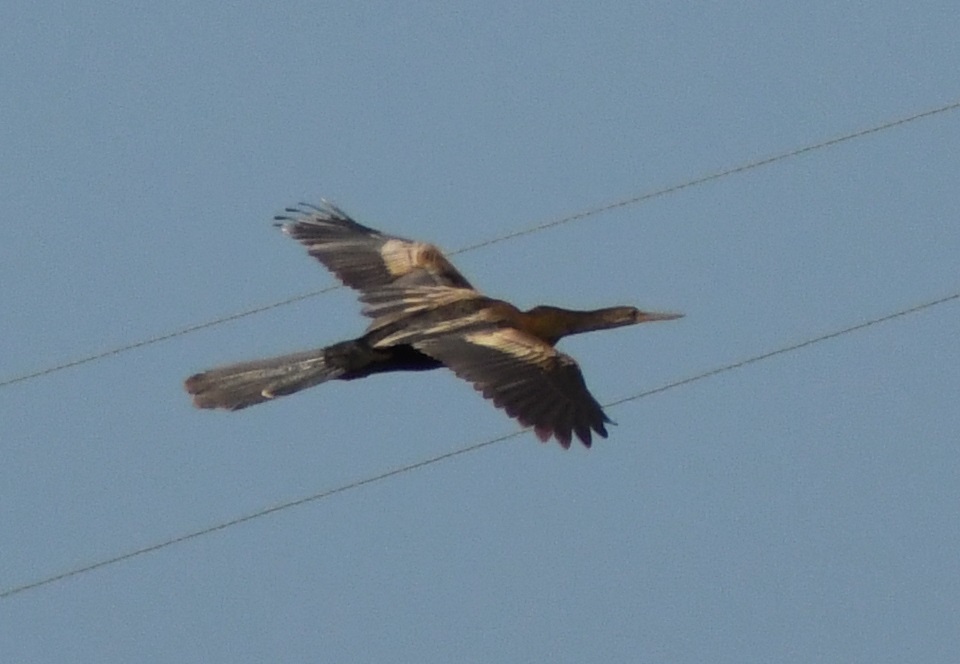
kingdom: Animalia
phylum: Chordata
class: Aves
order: Suliformes
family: Anhingidae
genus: Anhinga
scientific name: Anhinga anhinga
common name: Anhinga
